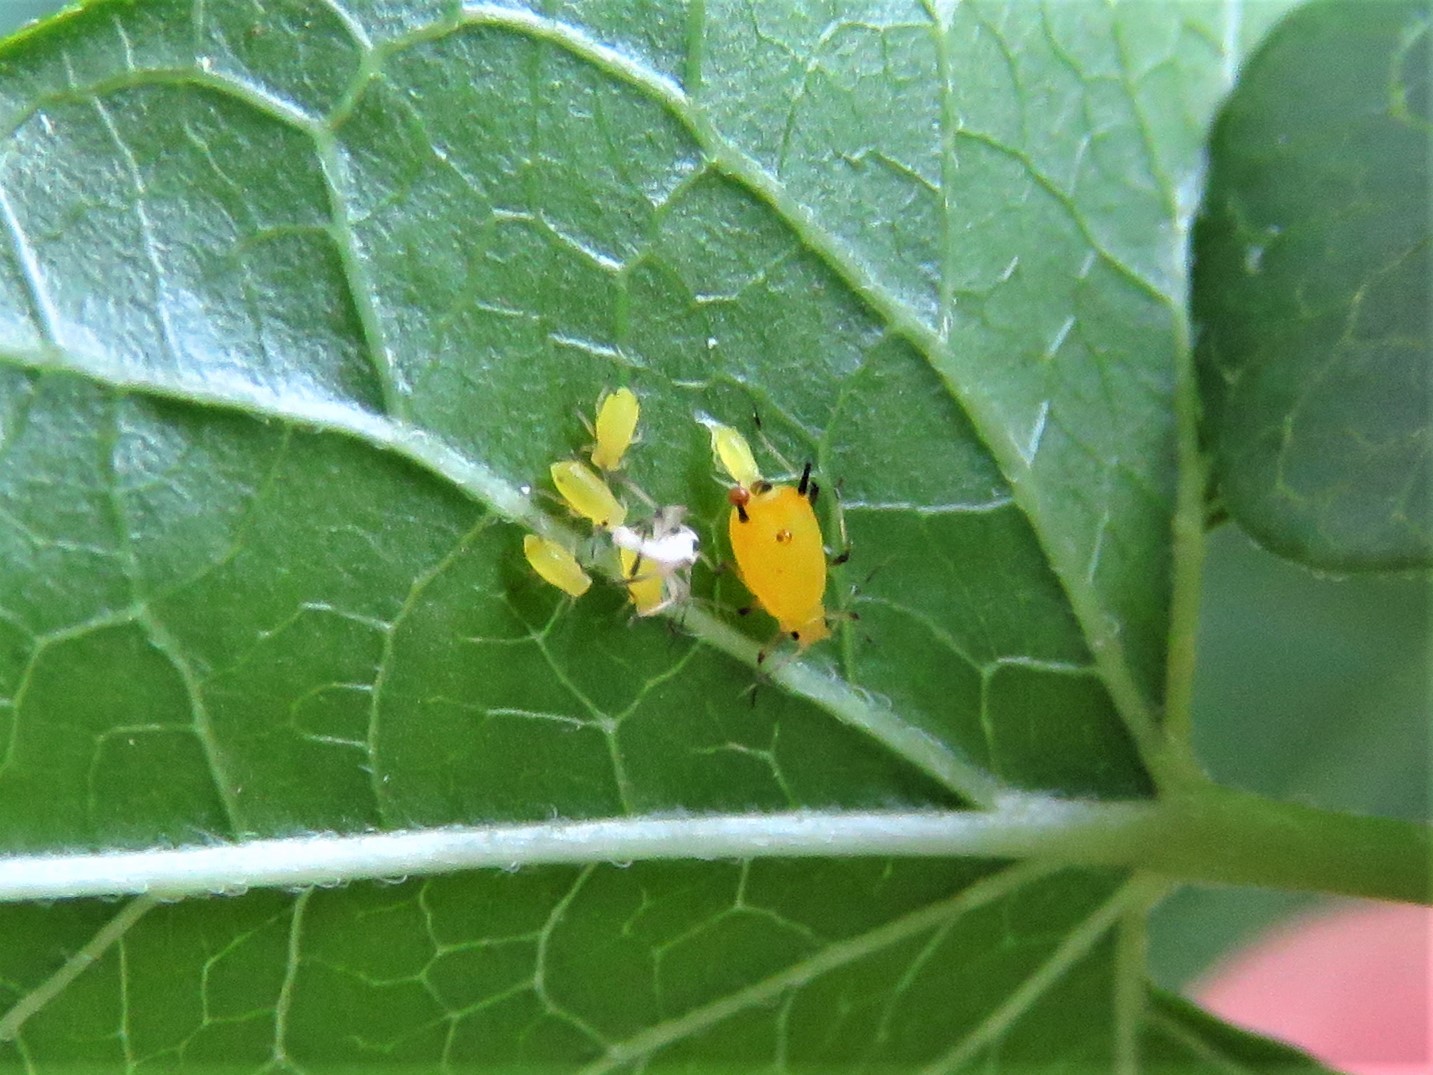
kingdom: Animalia
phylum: Arthropoda
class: Insecta
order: Hemiptera
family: Aphididae
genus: Aphis
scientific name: Aphis nerii
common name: Oleander aphid
